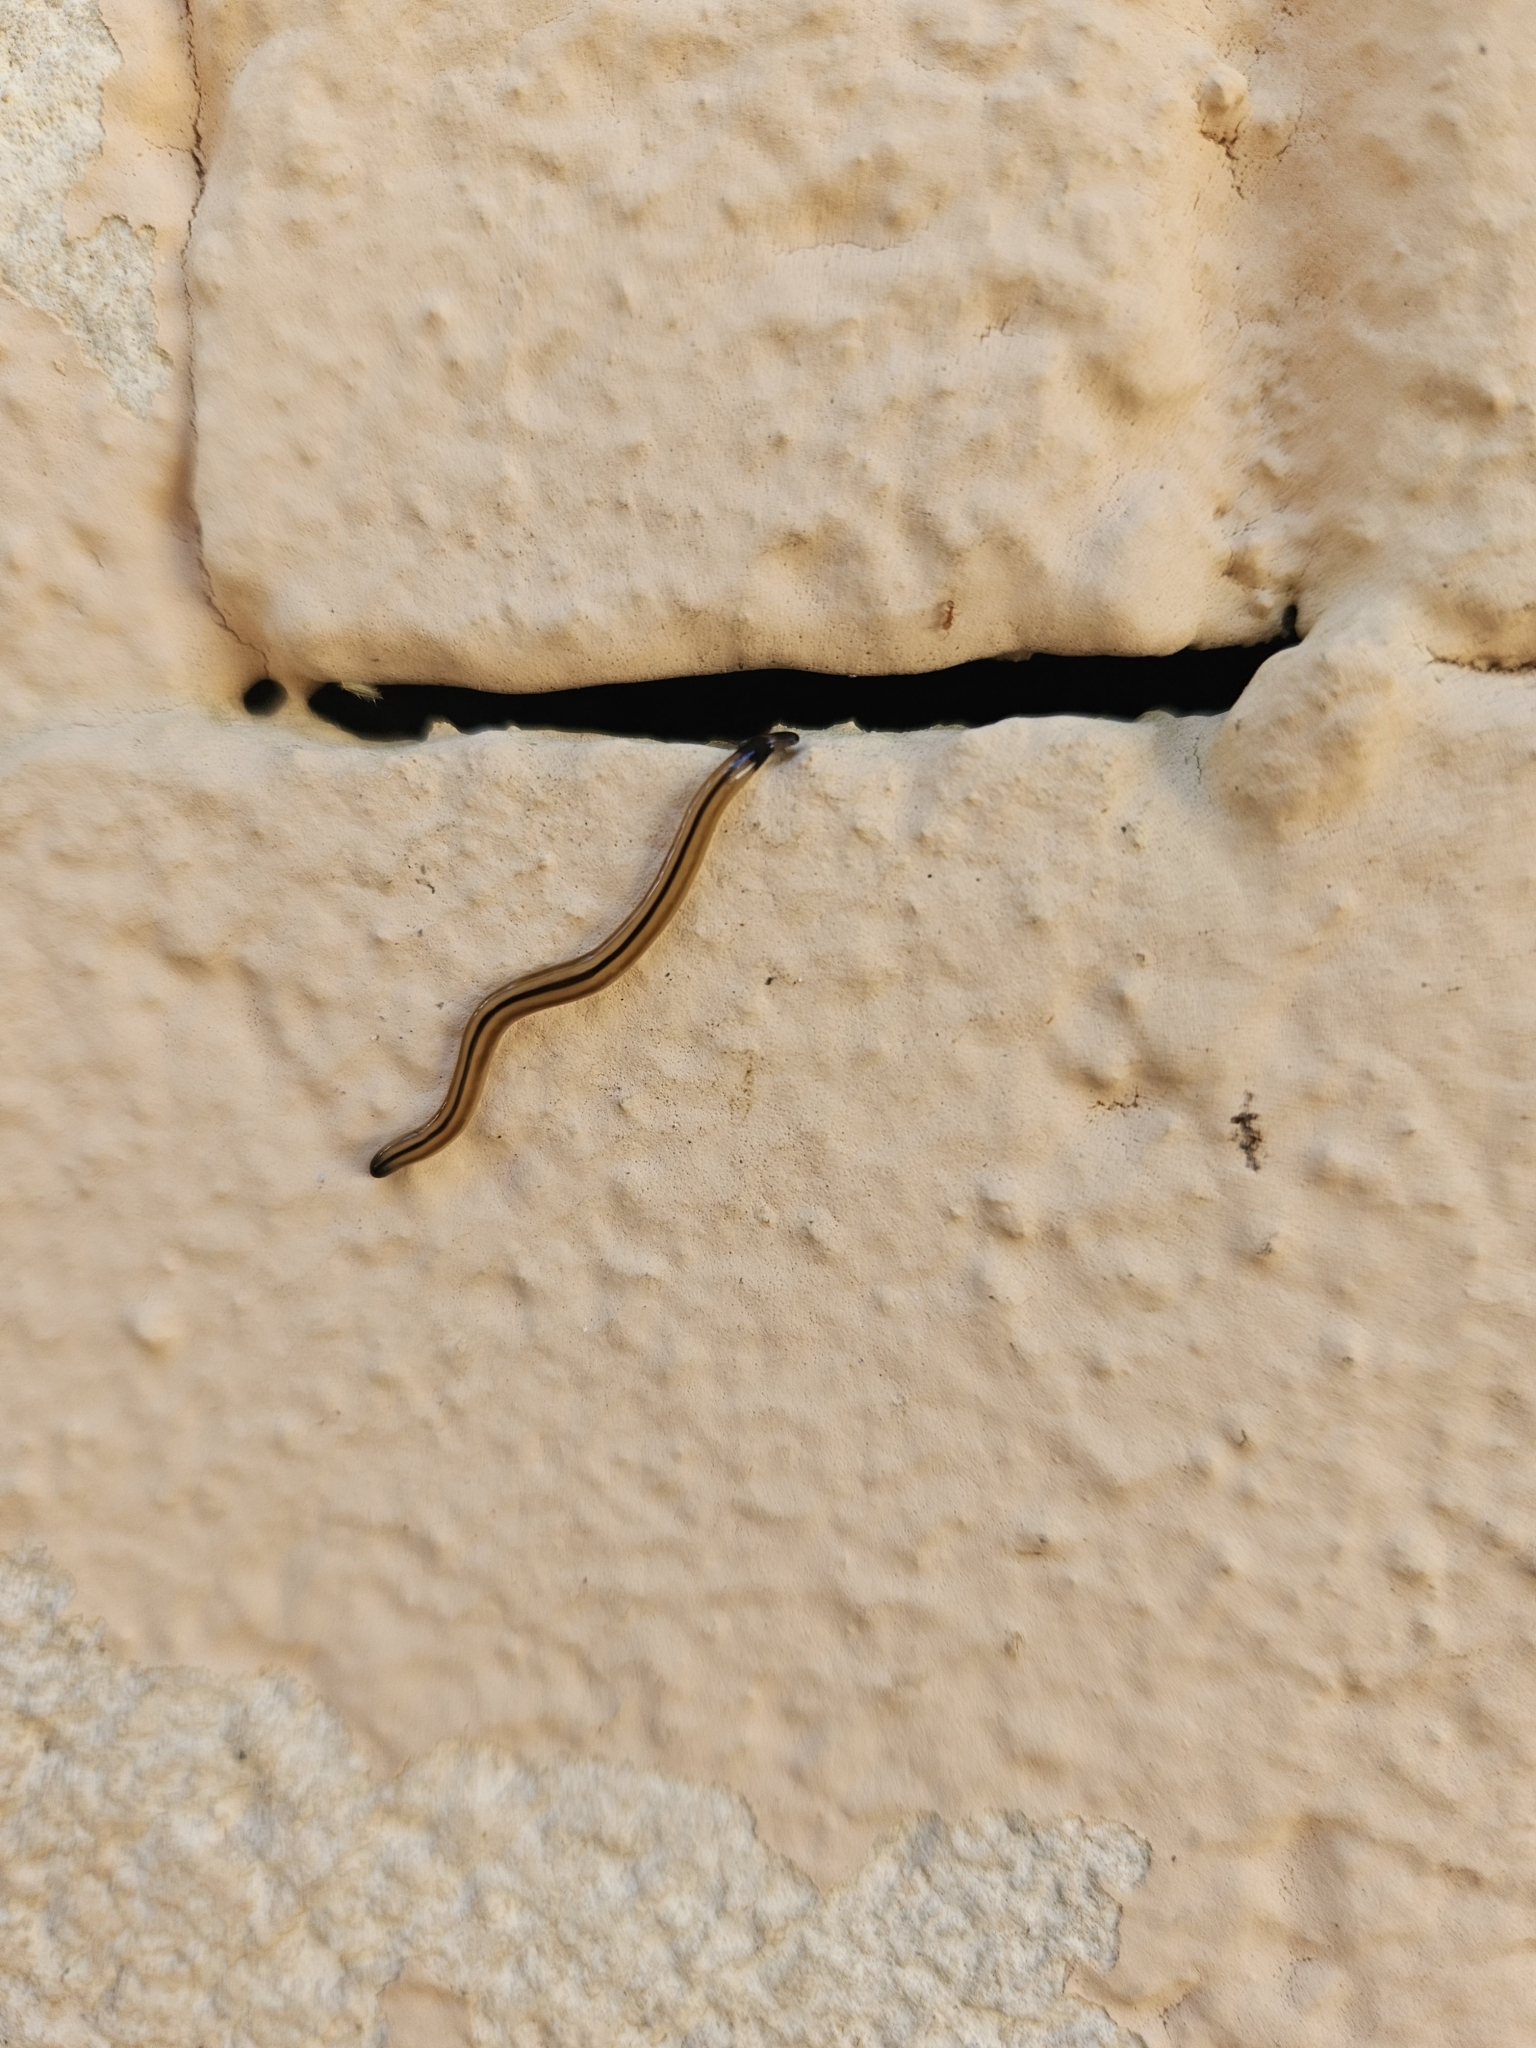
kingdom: Animalia
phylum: Platyhelminthes
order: Tricladida
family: Geoplanidae
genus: Bipalium
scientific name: Bipalium vagum
